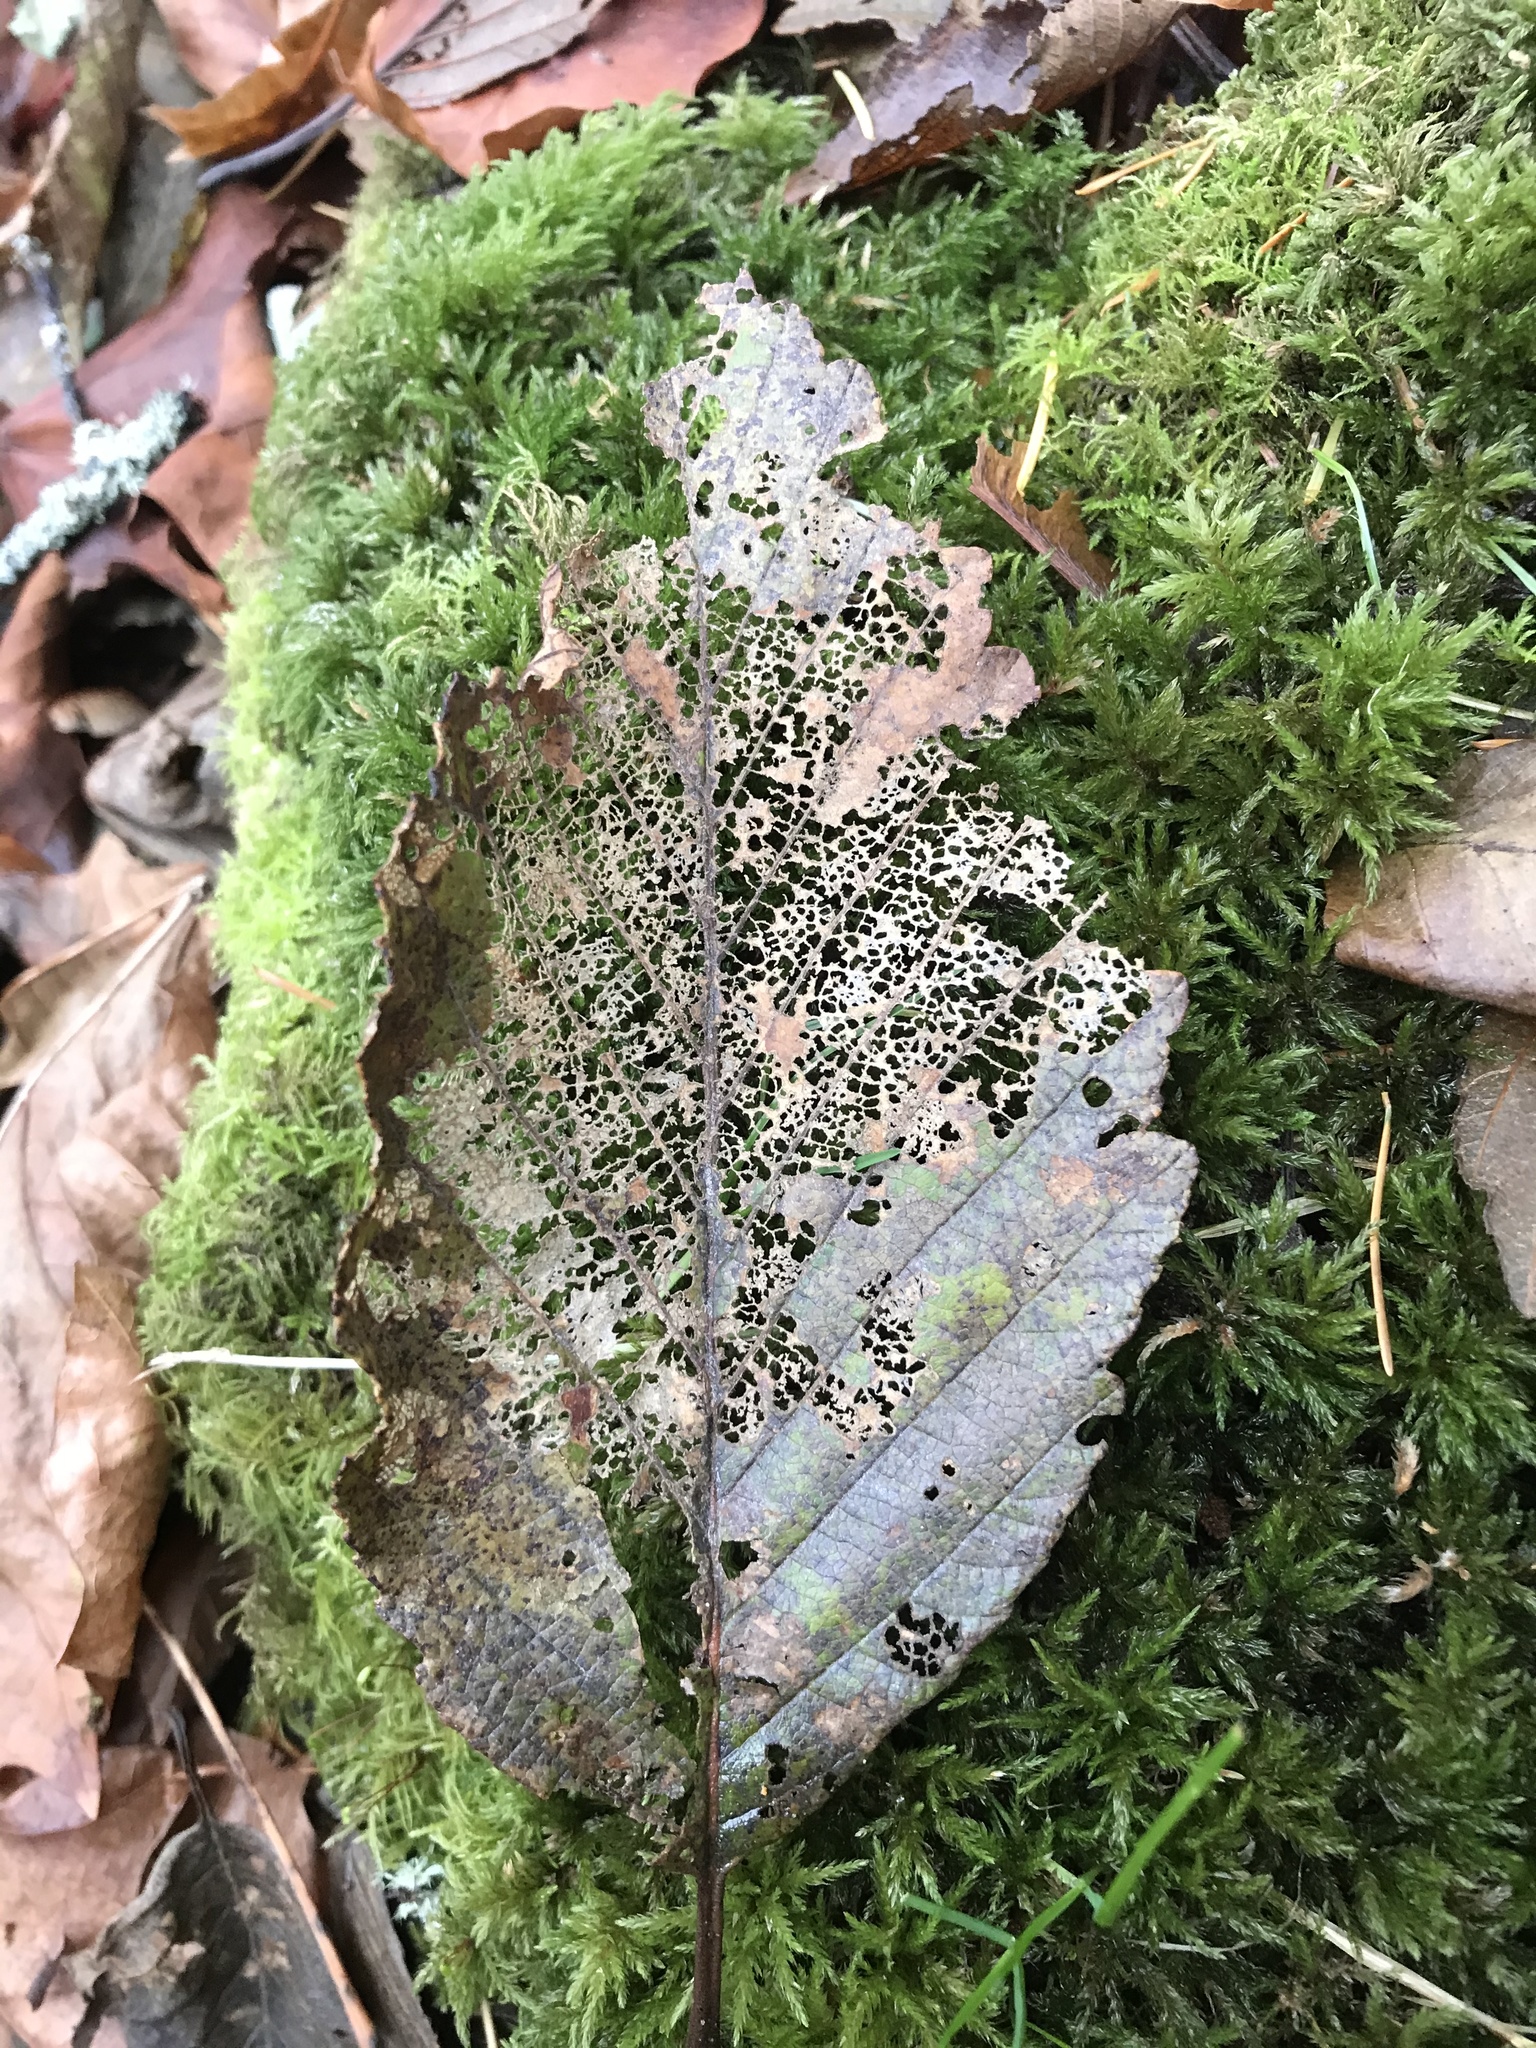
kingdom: Plantae
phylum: Tracheophyta
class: Magnoliopsida
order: Fagales
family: Betulaceae
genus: Alnus
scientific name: Alnus rubra
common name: Red alder
